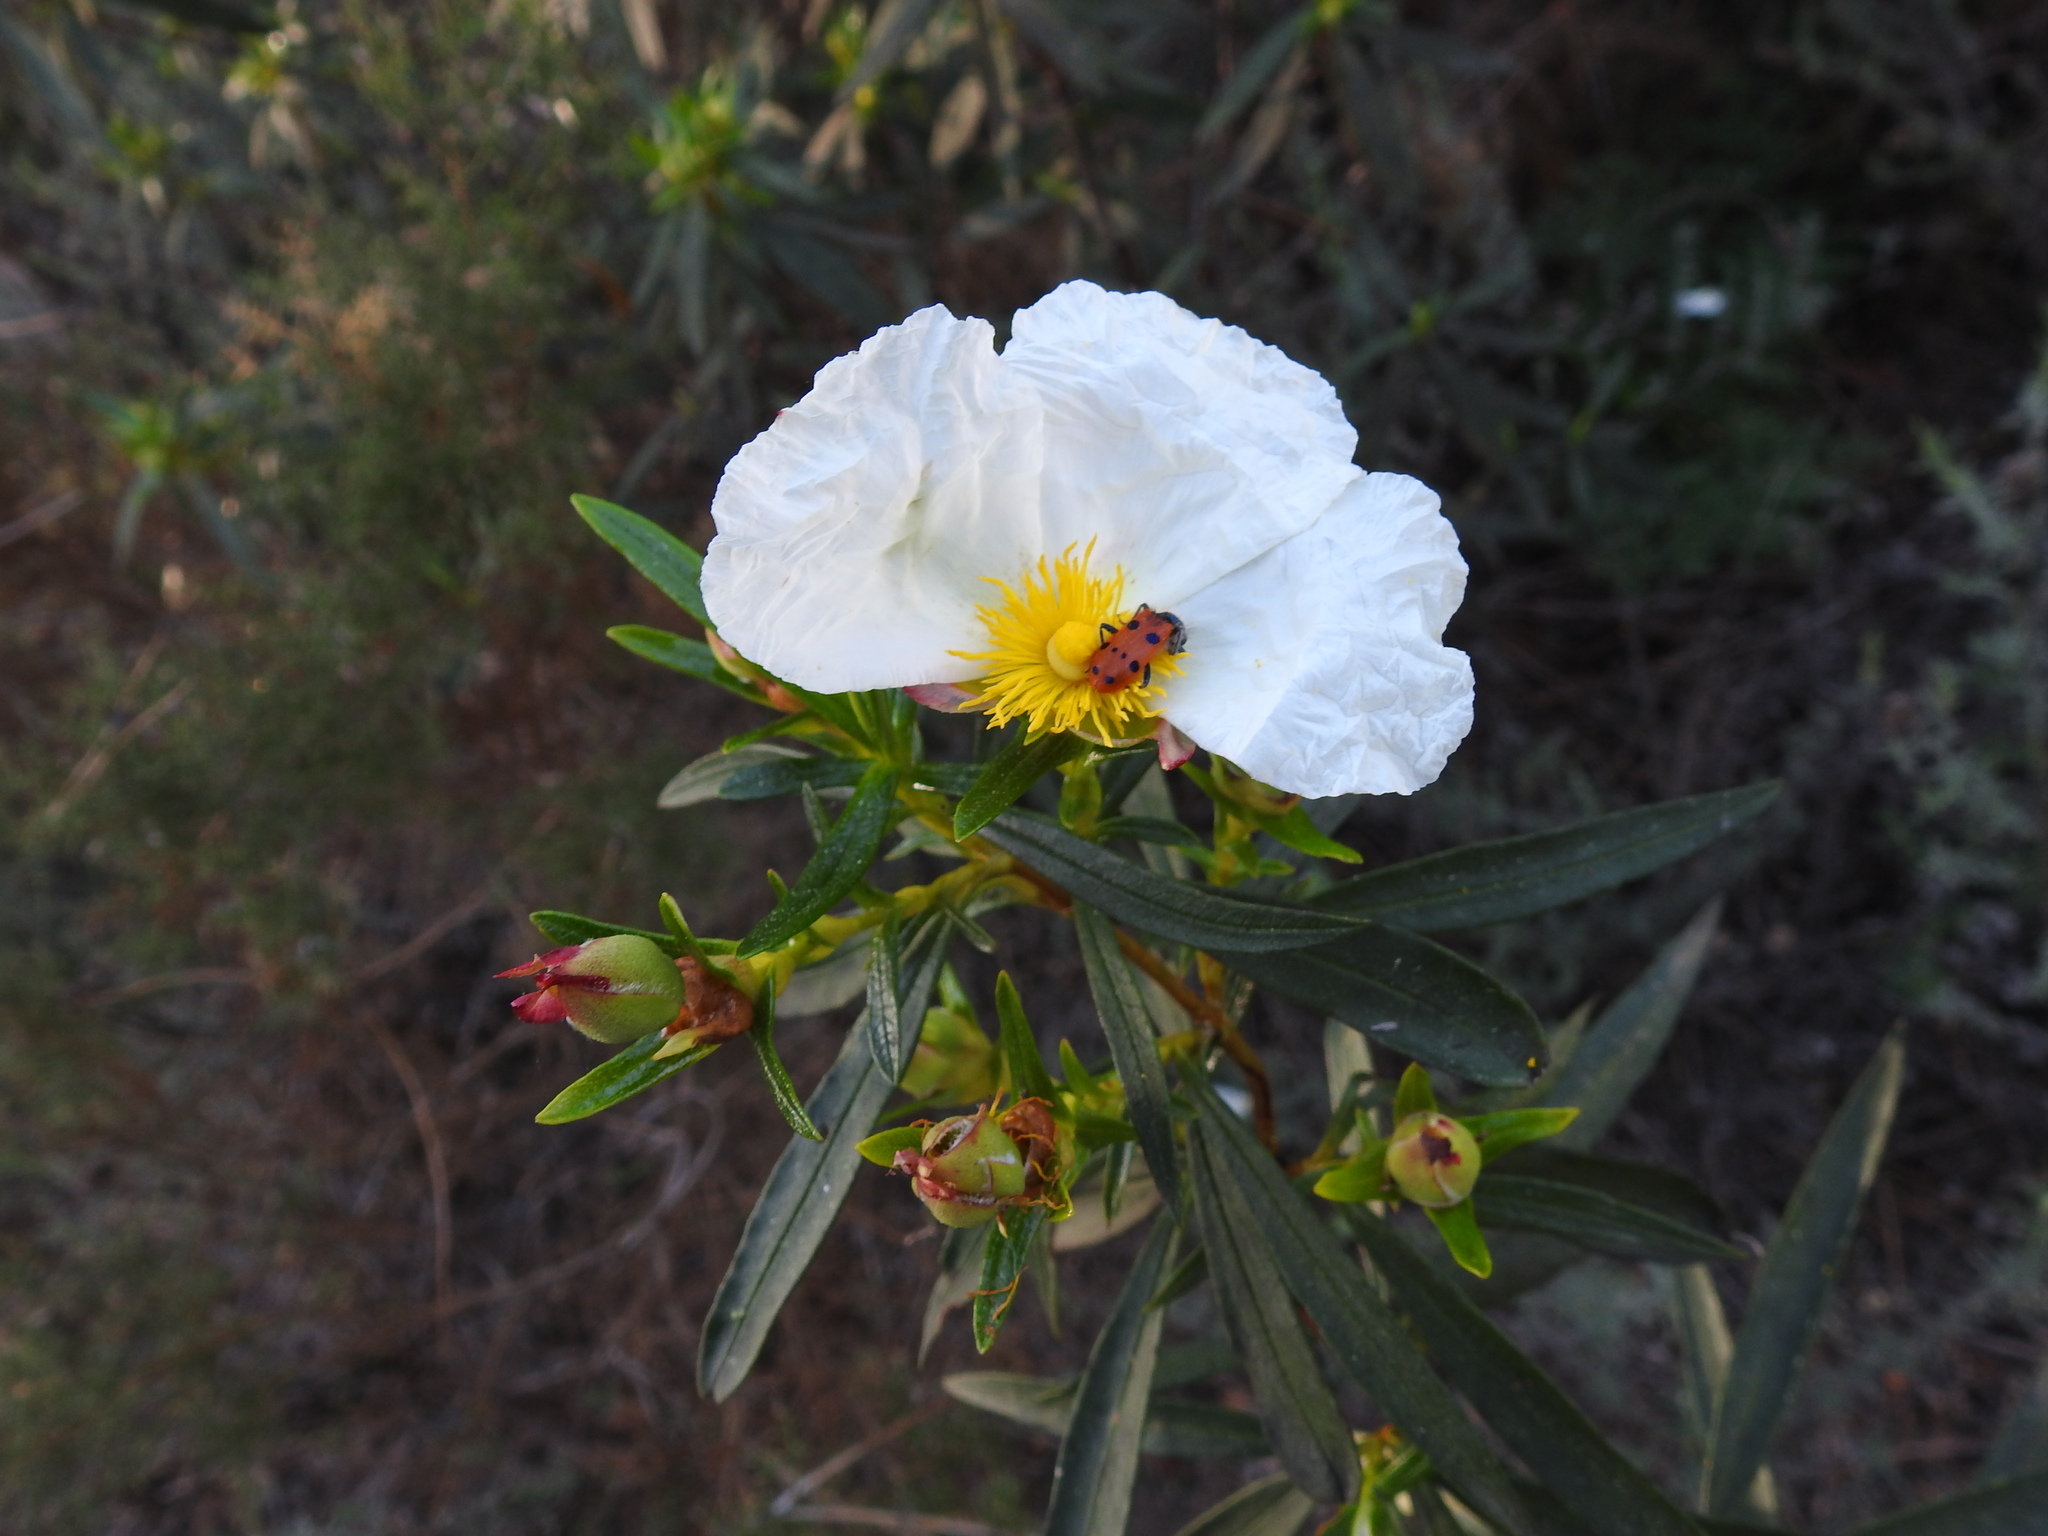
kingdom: Plantae
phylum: Tracheophyta
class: Magnoliopsida
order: Malvales
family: Cistaceae
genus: Cistus
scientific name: Cistus ladanifer
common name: Common gum cistus
